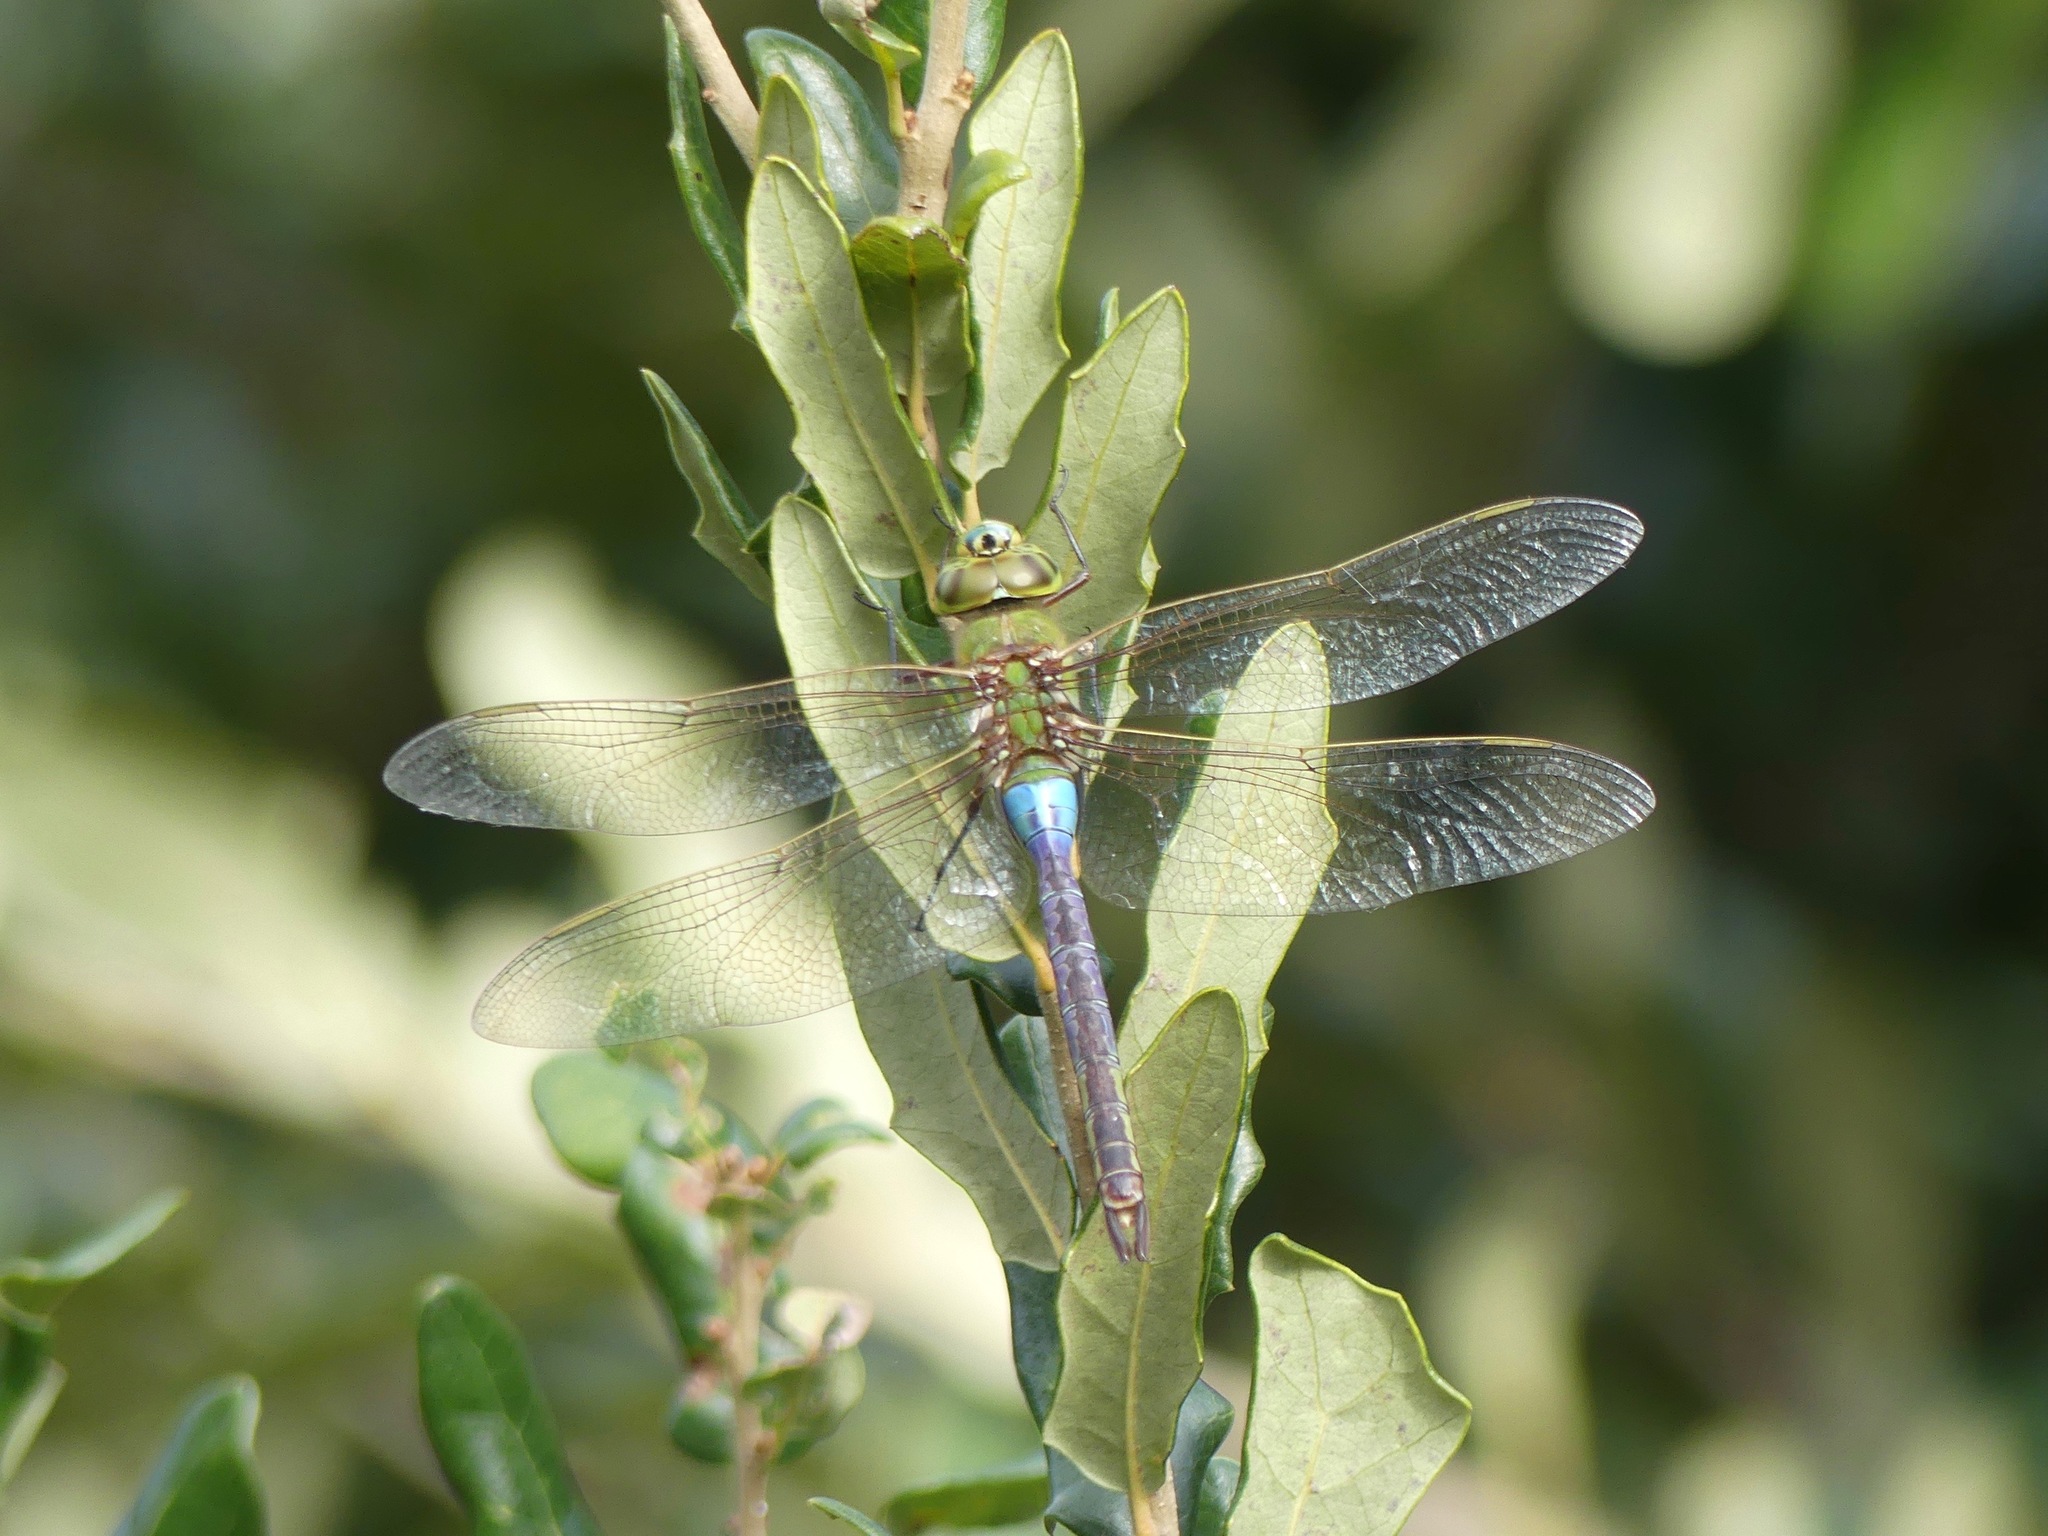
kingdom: Animalia
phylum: Arthropoda
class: Insecta
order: Odonata
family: Aeshnidae
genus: Anax
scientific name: Anax junius
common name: Common green darner
